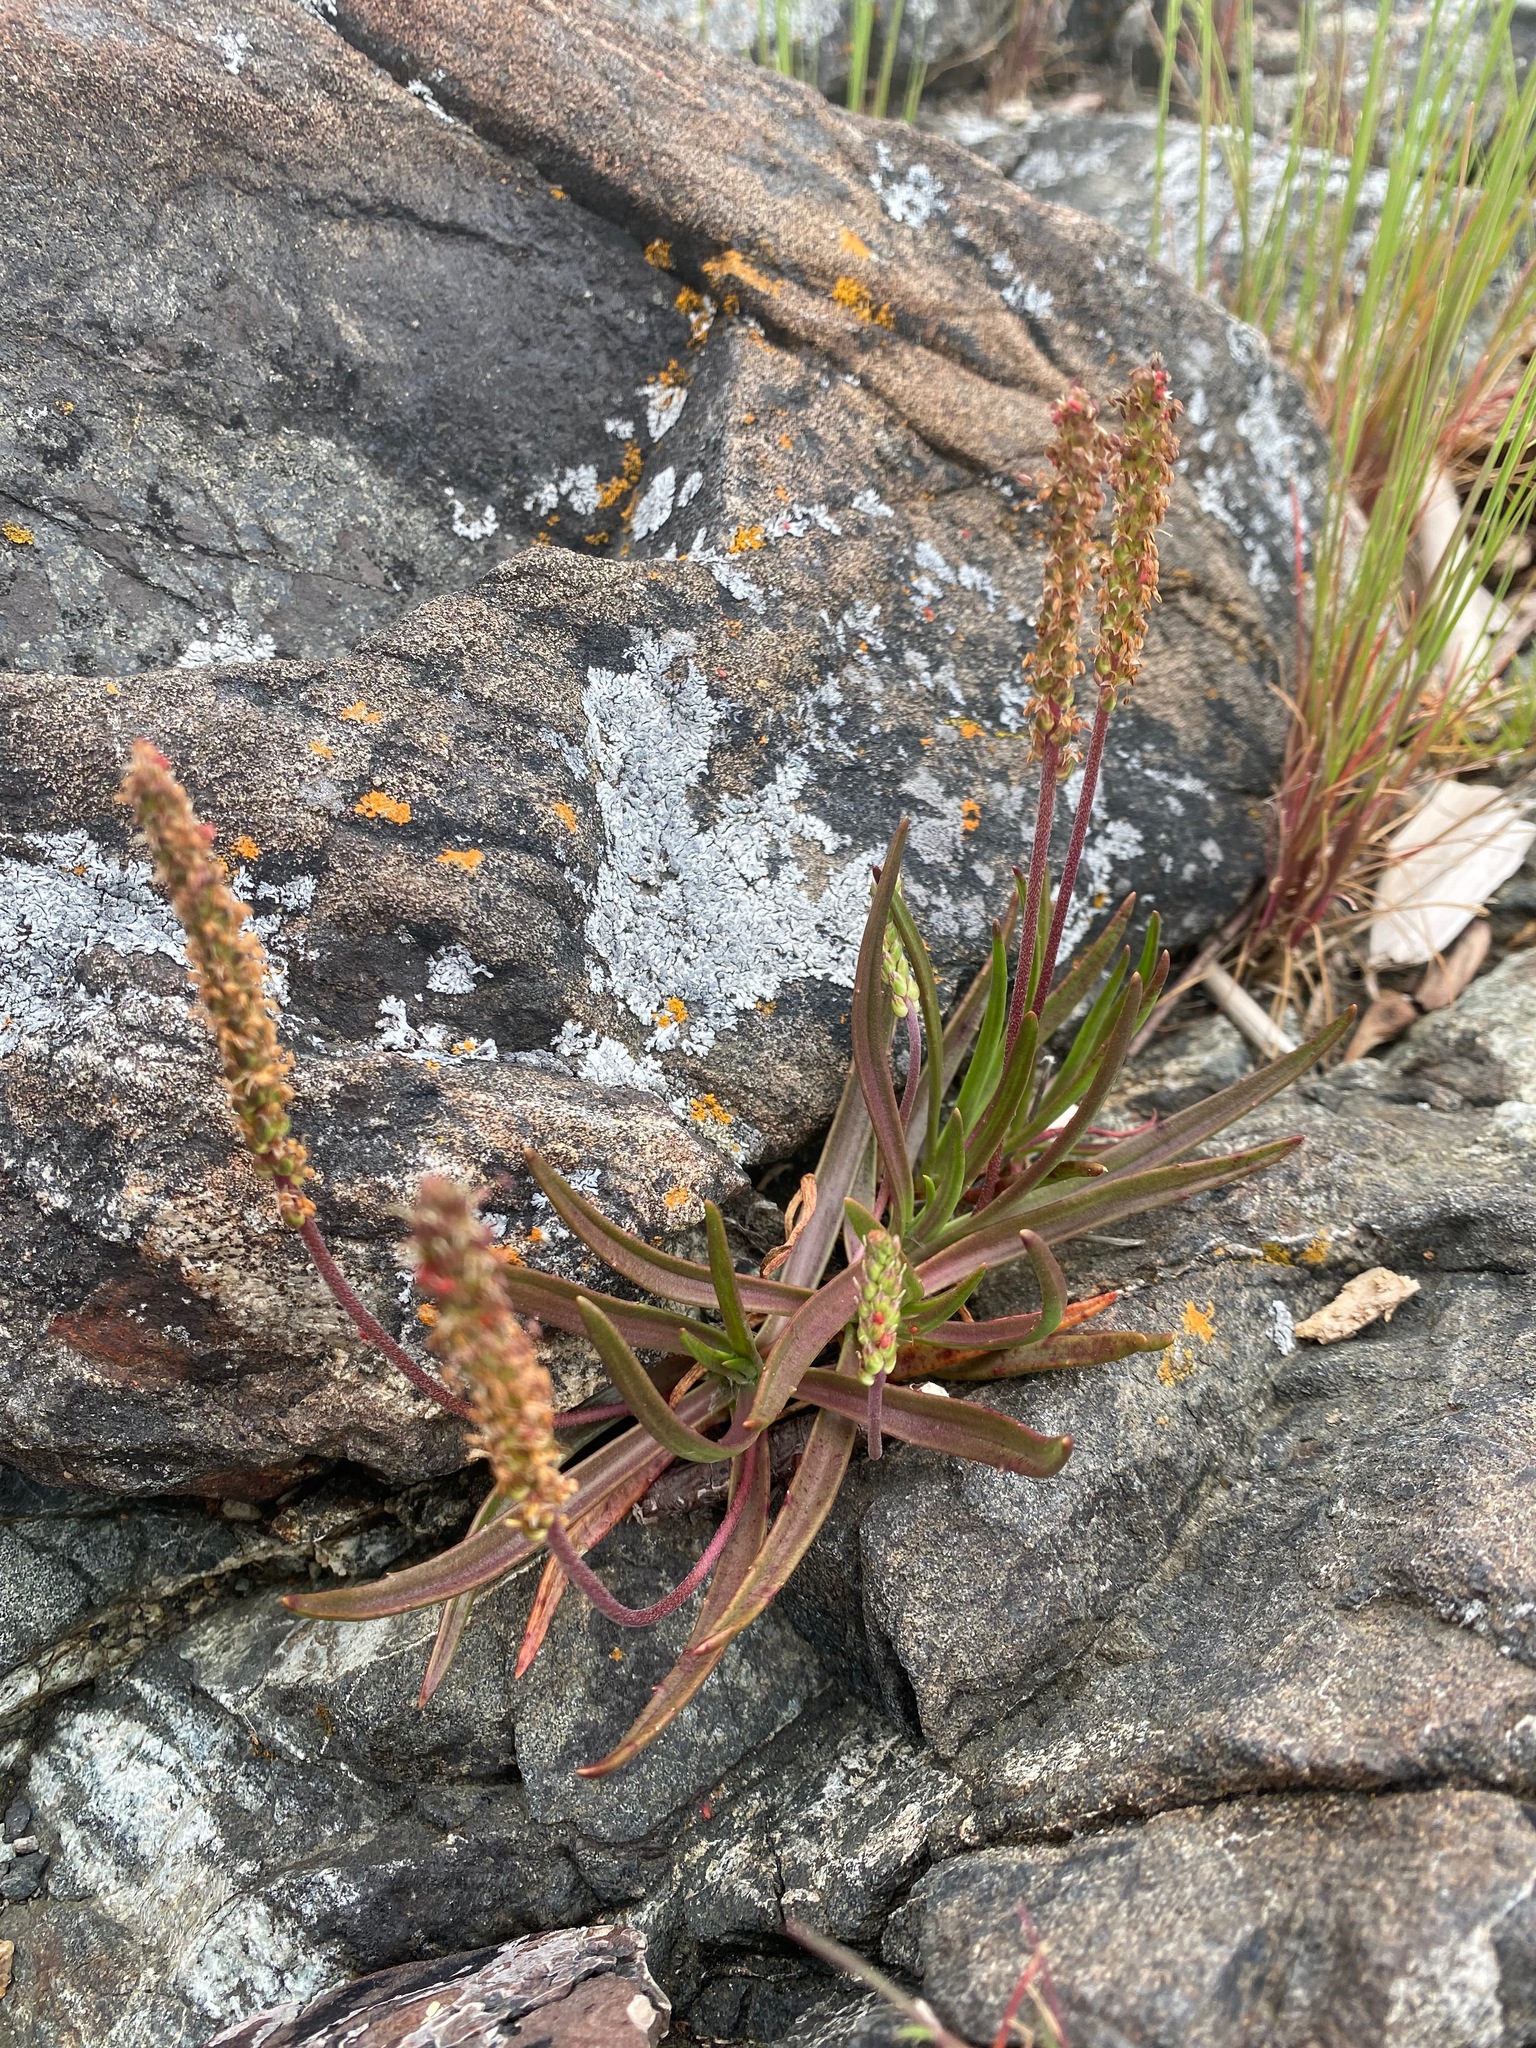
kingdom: Plantae
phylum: Tracheophyta
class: Magnoliopsida
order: Lamiales
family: Plantaginaceae
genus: Plantago
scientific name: Plantago maritima
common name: Sea plantain
